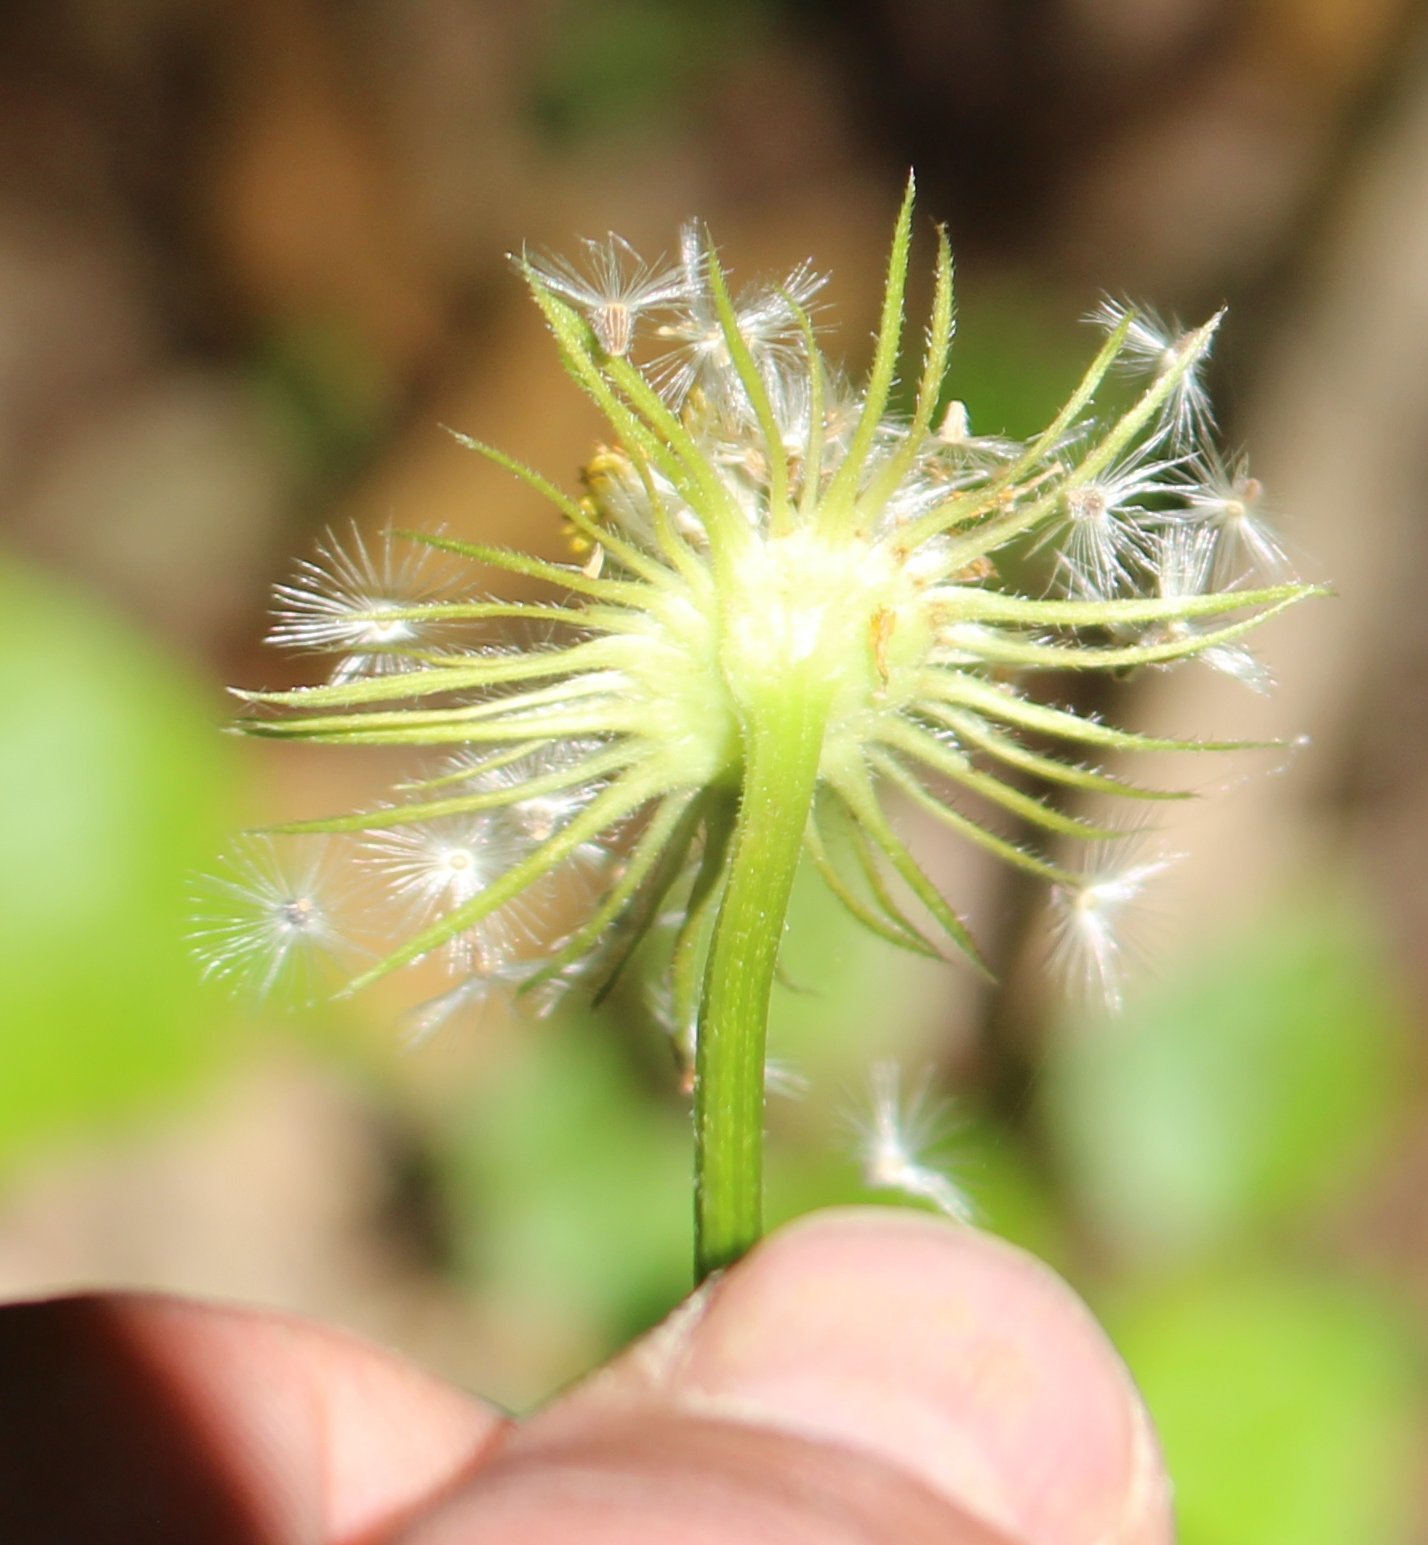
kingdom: Plantae
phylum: Tracheophyta
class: Magnoliopsida
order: Asterales
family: Asteraceae
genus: Doronicum
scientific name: Doronicum
